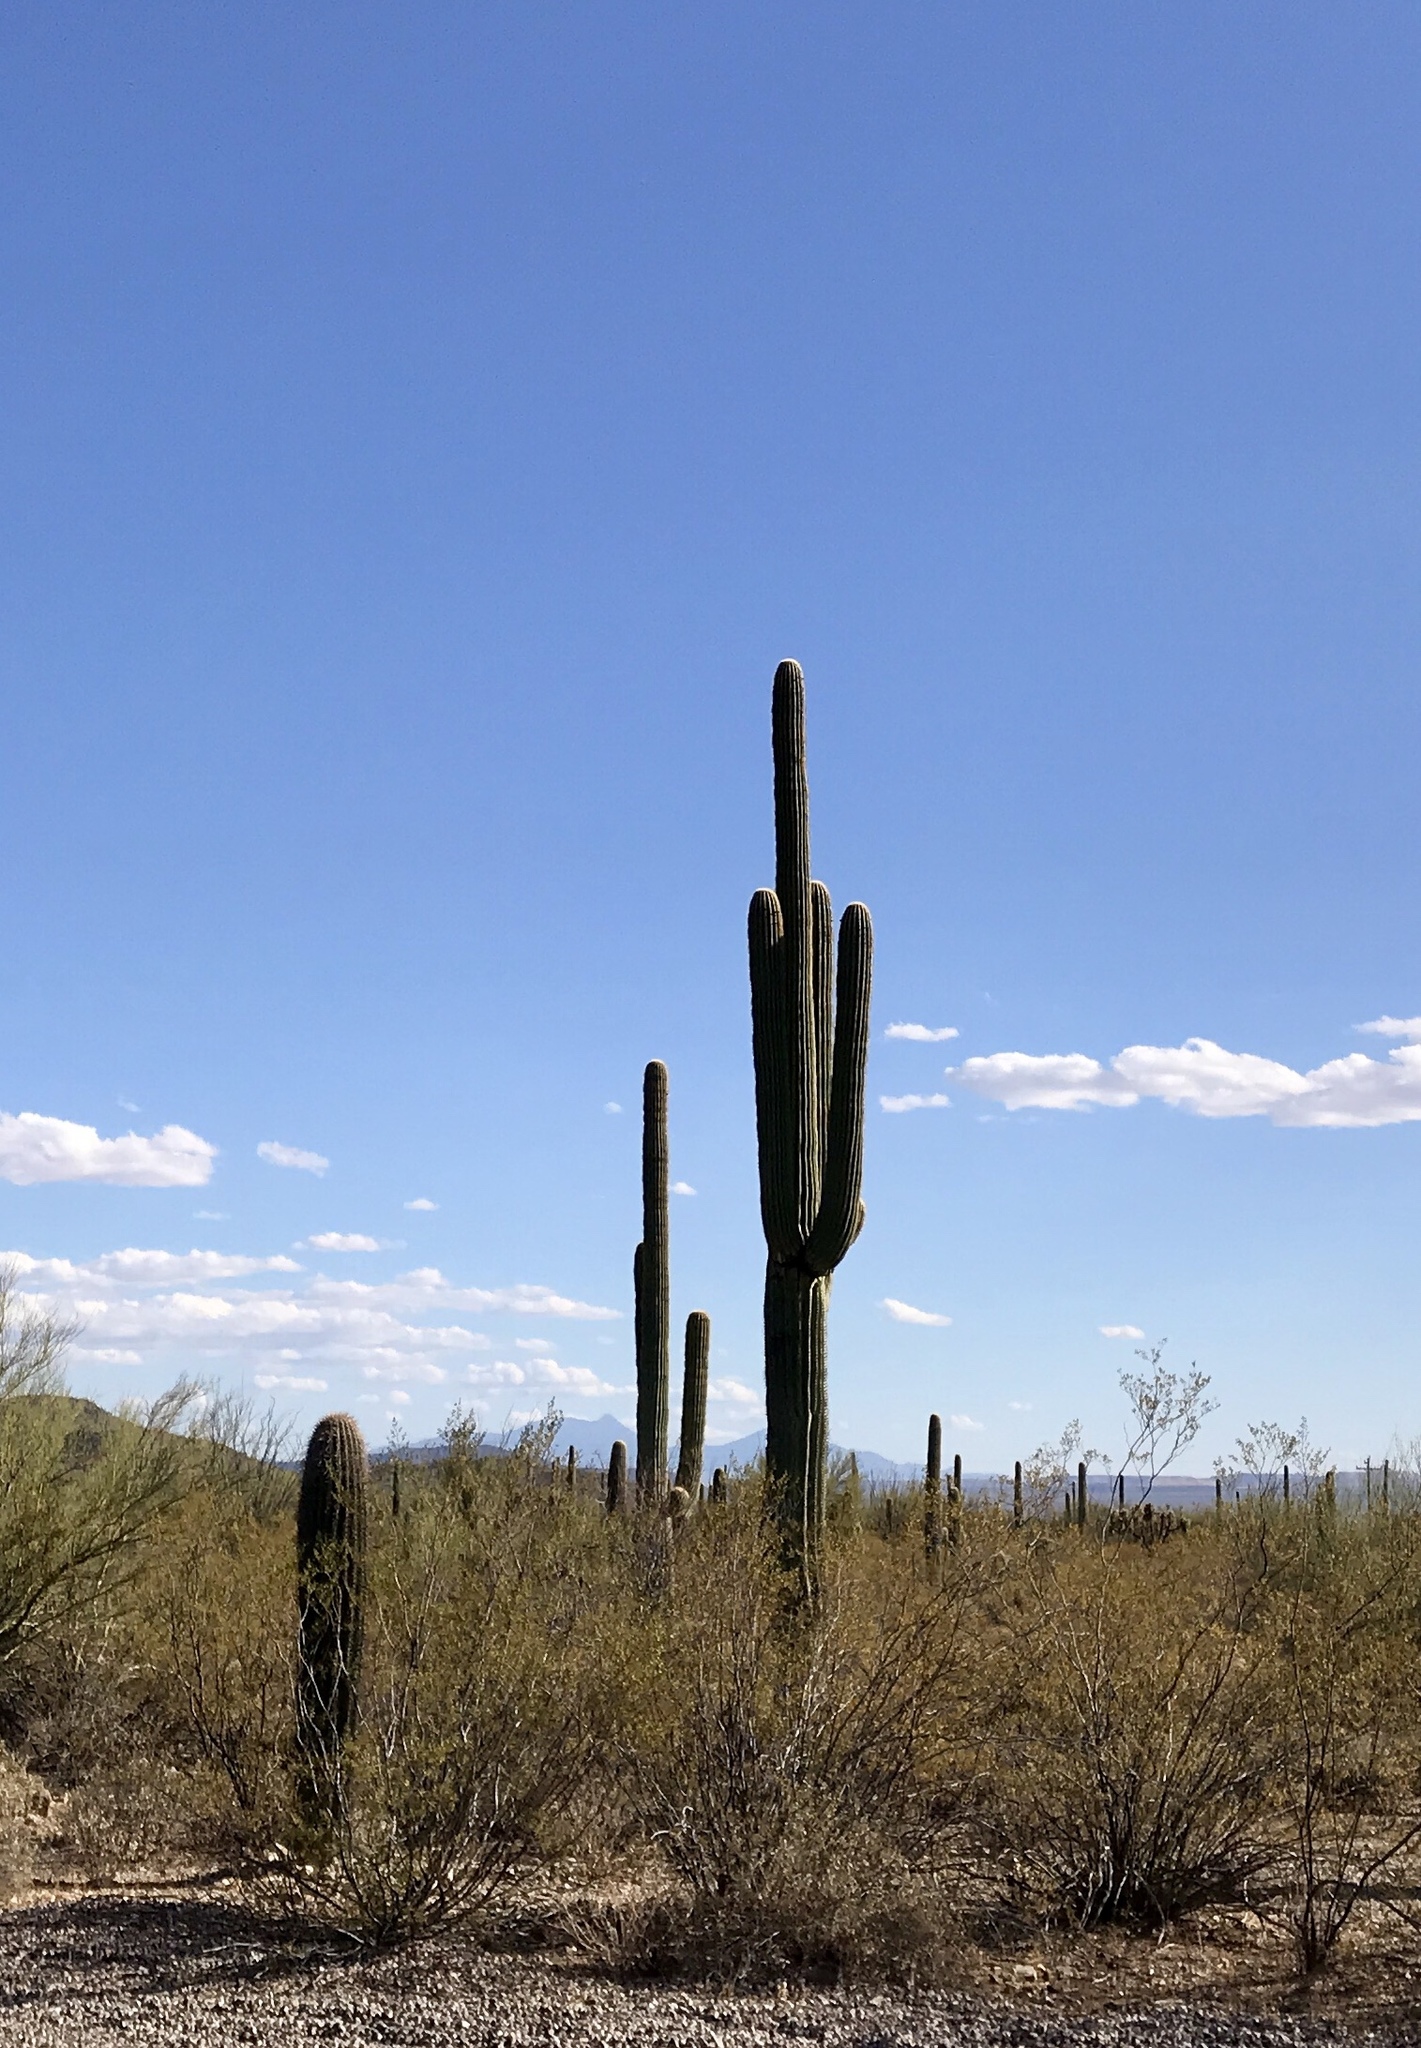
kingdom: Plantae
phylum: Tracheophyta
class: Magnoliopsida
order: Caryophyllales
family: Cactaceae
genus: Carnegiea
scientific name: Carnegiea gigantea
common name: Saguaro
